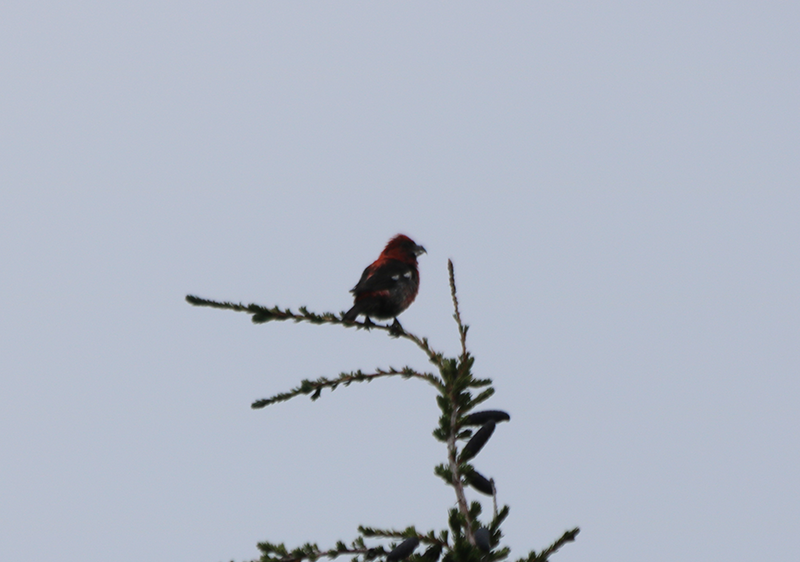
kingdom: Animalia
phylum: Chordata
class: Aves
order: Passeriformes
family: Fringillidae
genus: Loxia
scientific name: Loxia leucoptera
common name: Two-barred crossbill
